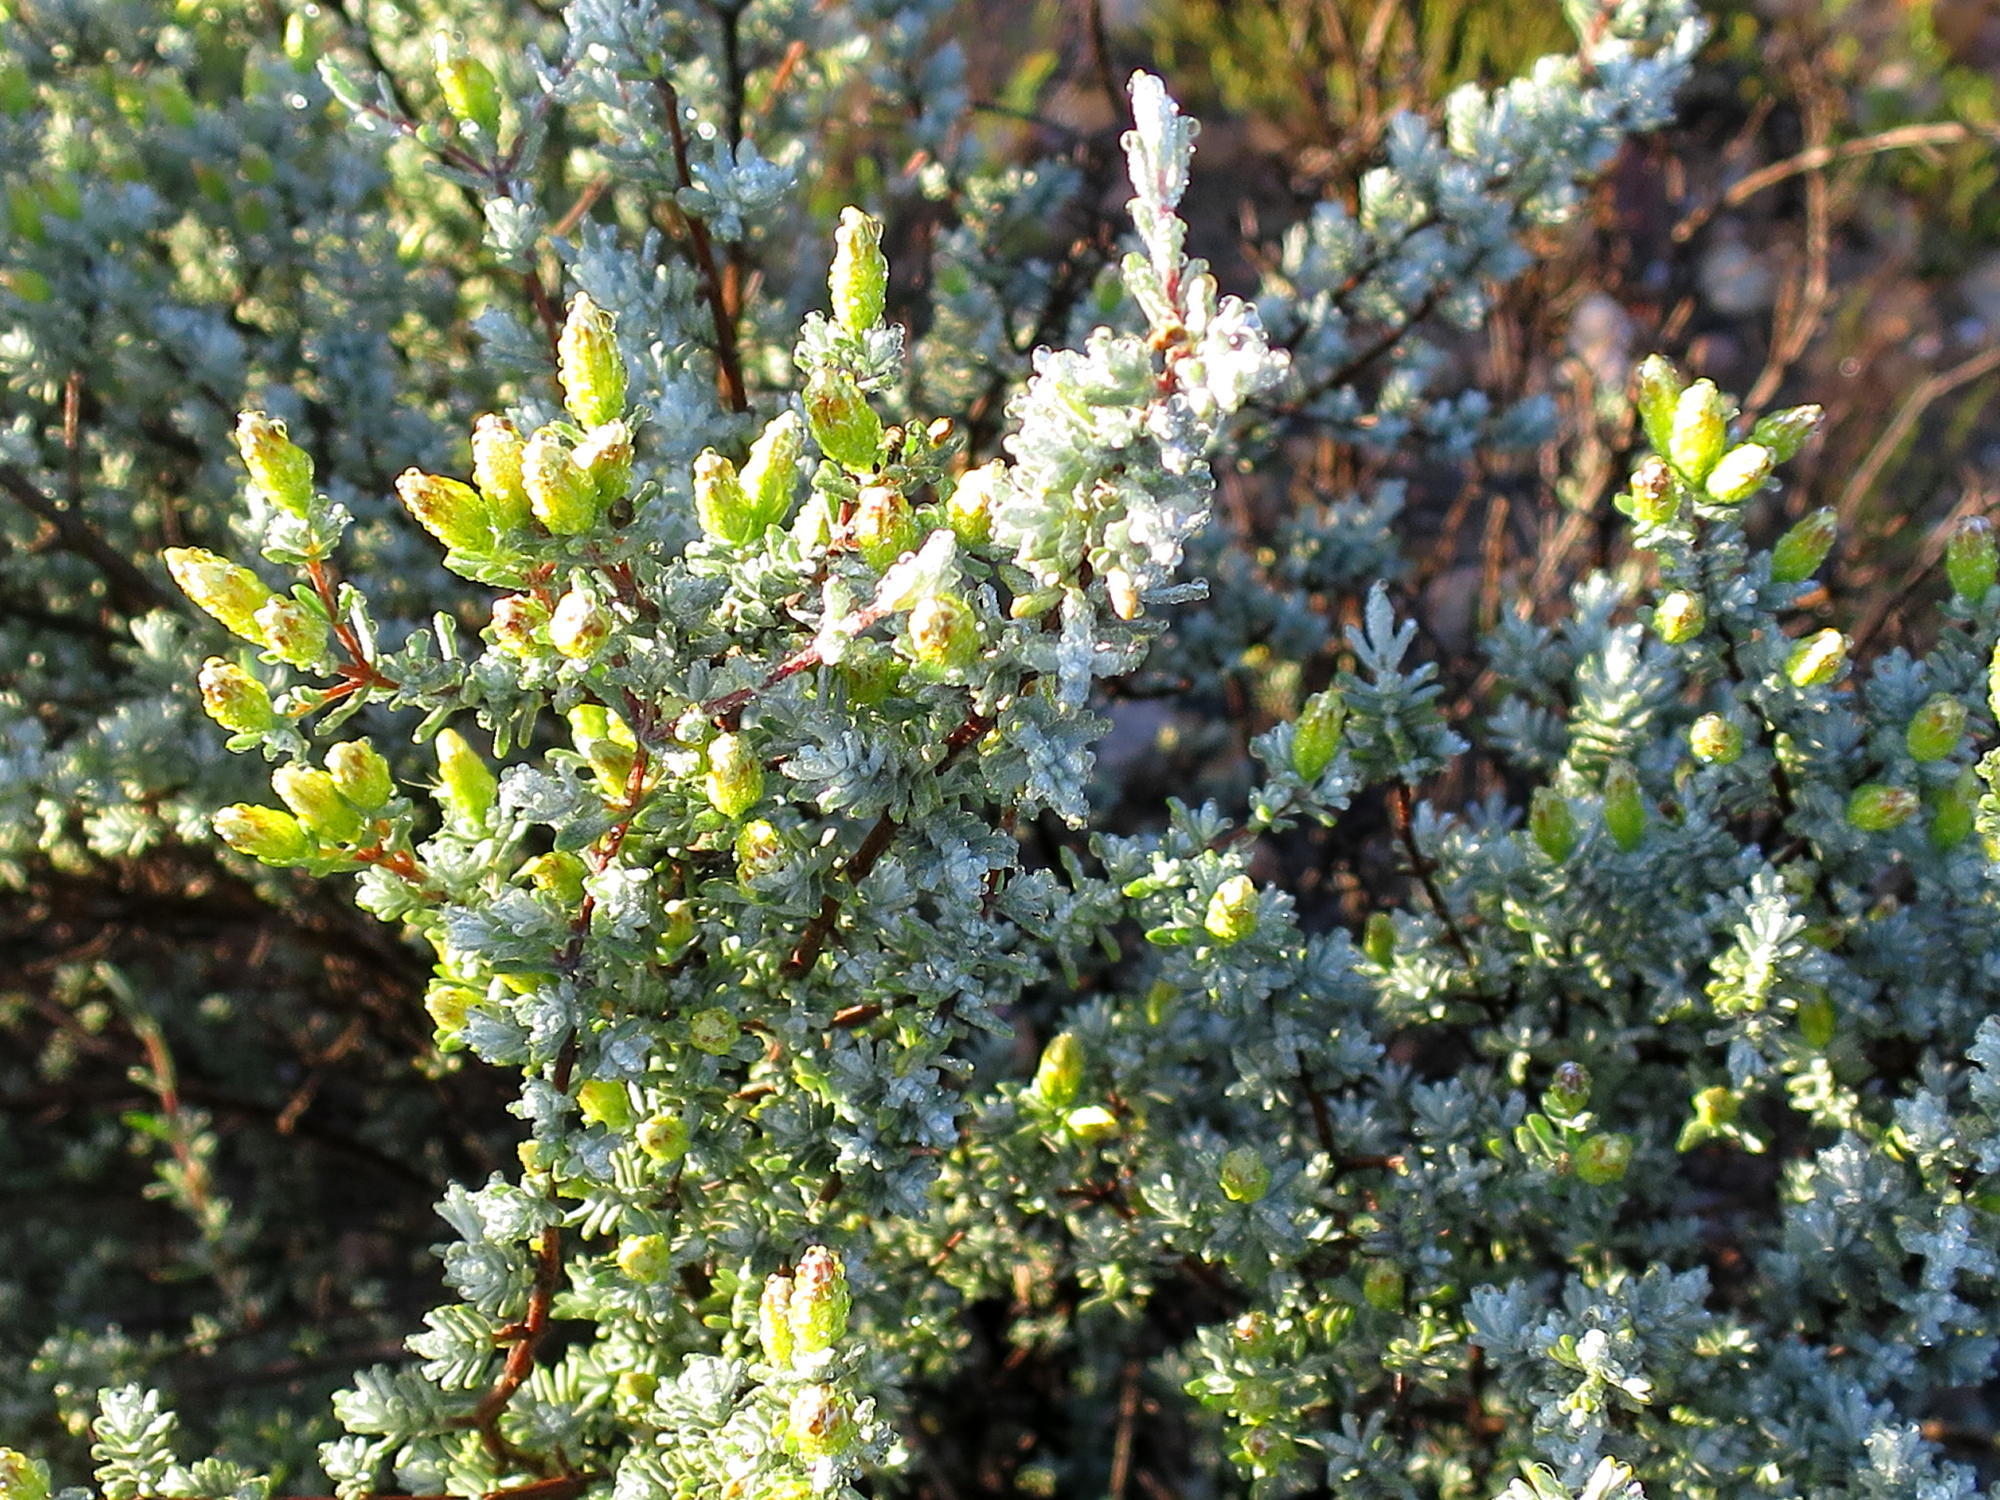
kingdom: Plantae
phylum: Tracheophyta
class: Magnoliopsida
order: Asterales
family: Asteraceae
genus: Pteronia
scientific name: Pteronia incana
